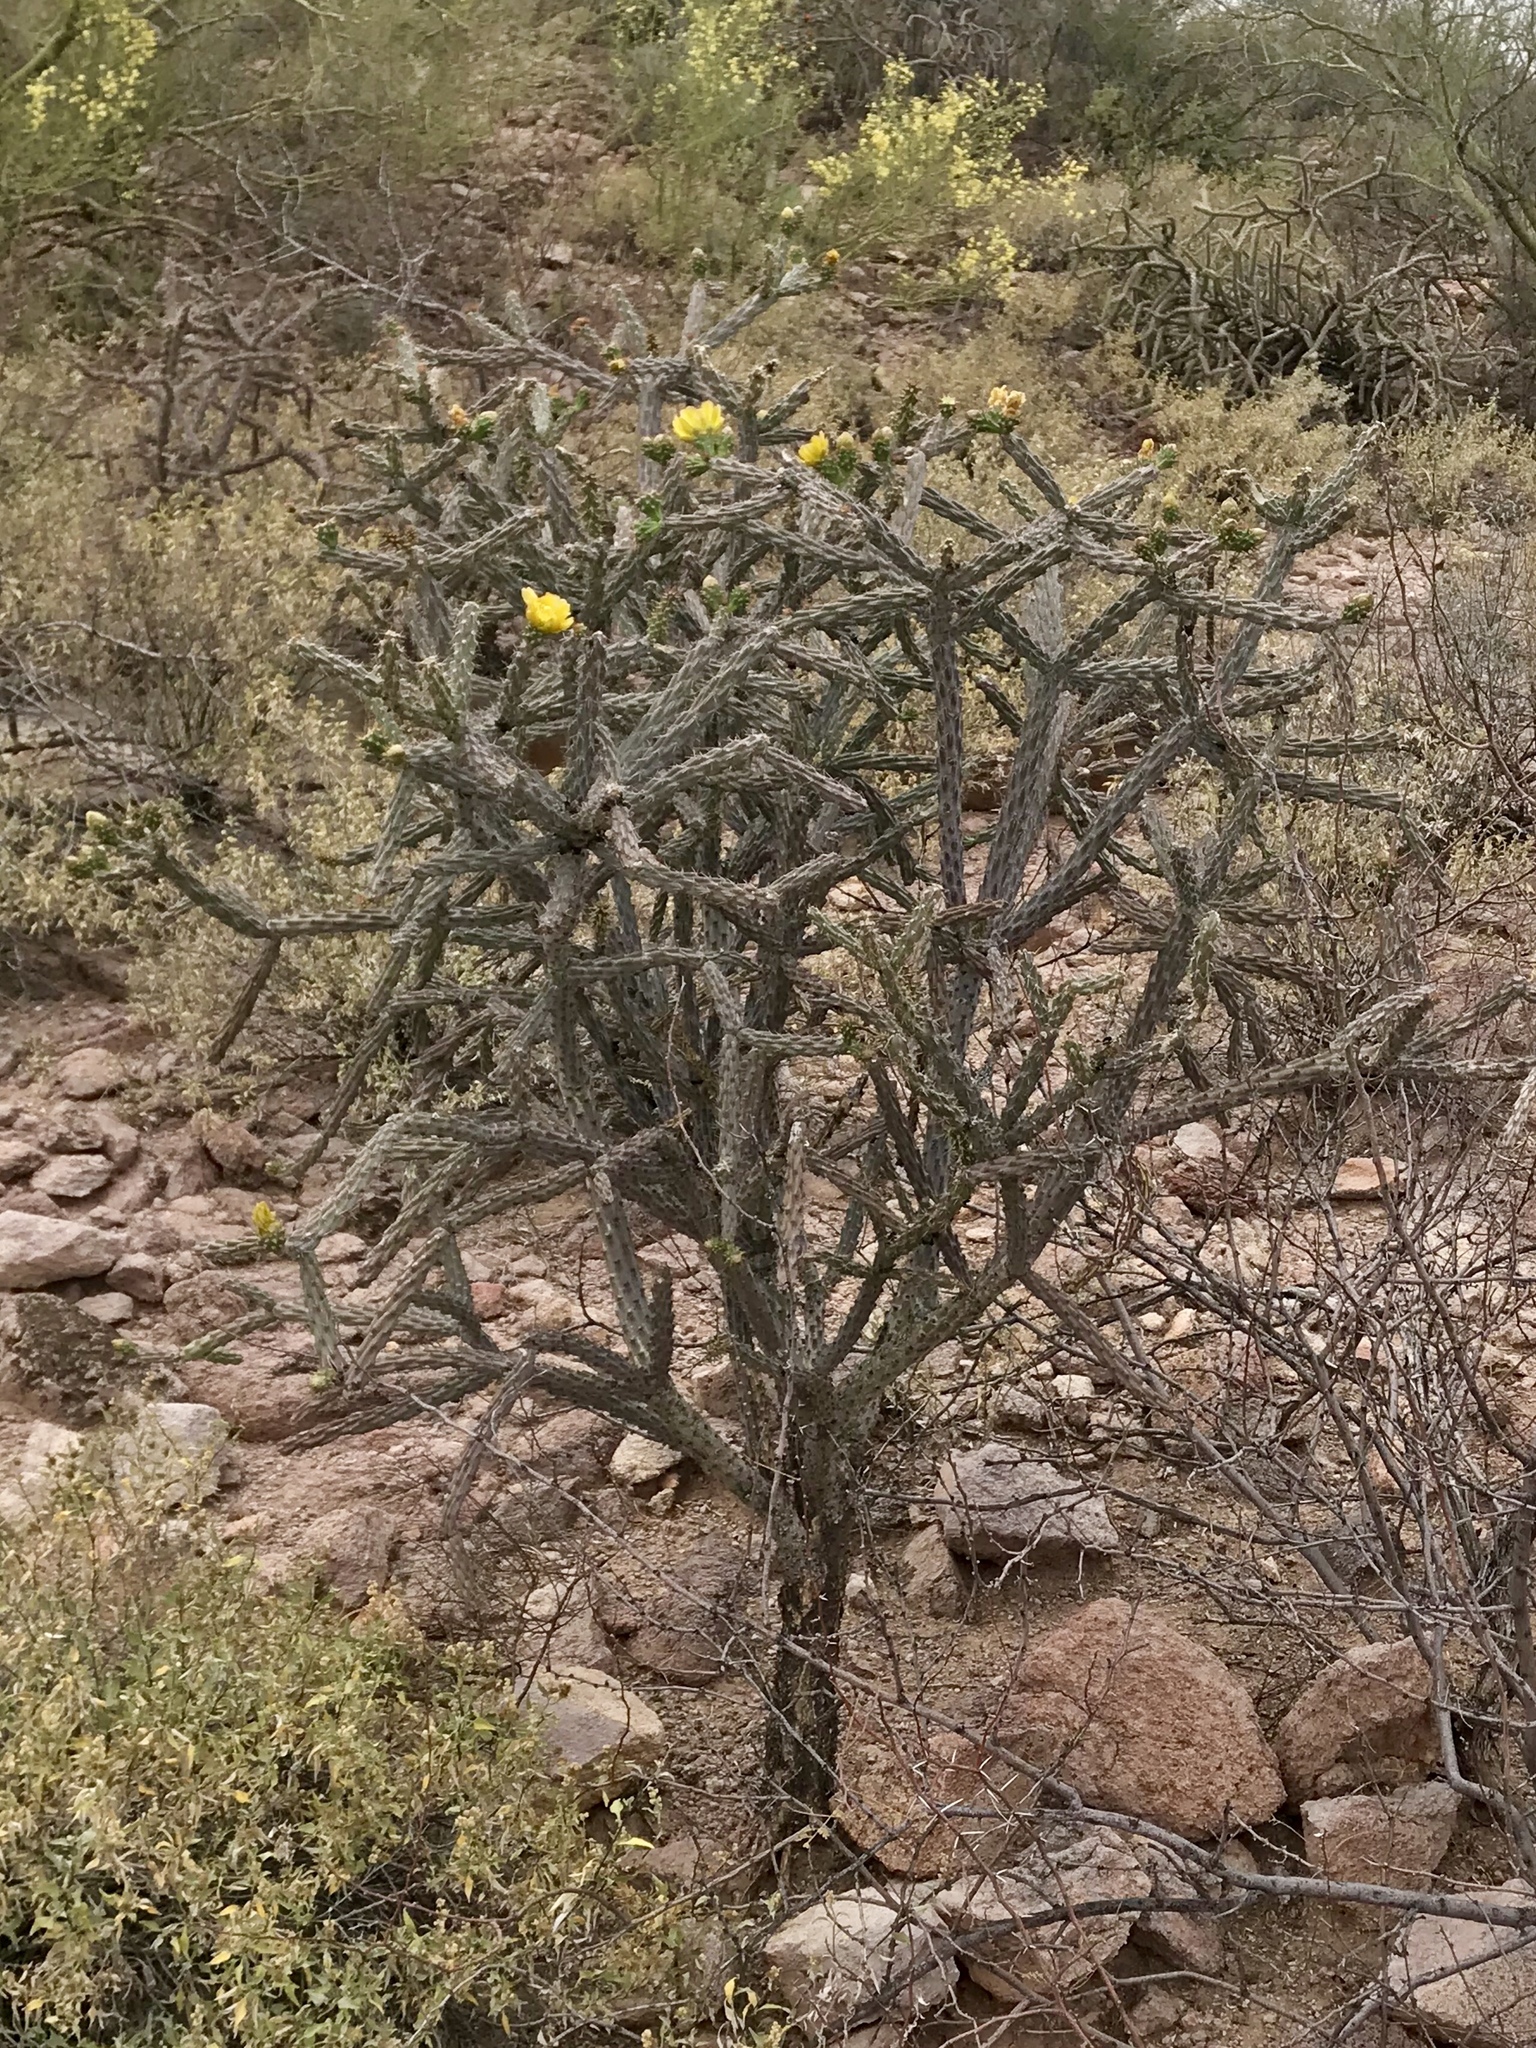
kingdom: Plantae
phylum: Tracheophyta
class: Magnoliopsida
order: Caryophyllales
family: Cactaceae
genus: Cylindropuntia
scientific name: Cylindropuntia thurberi
